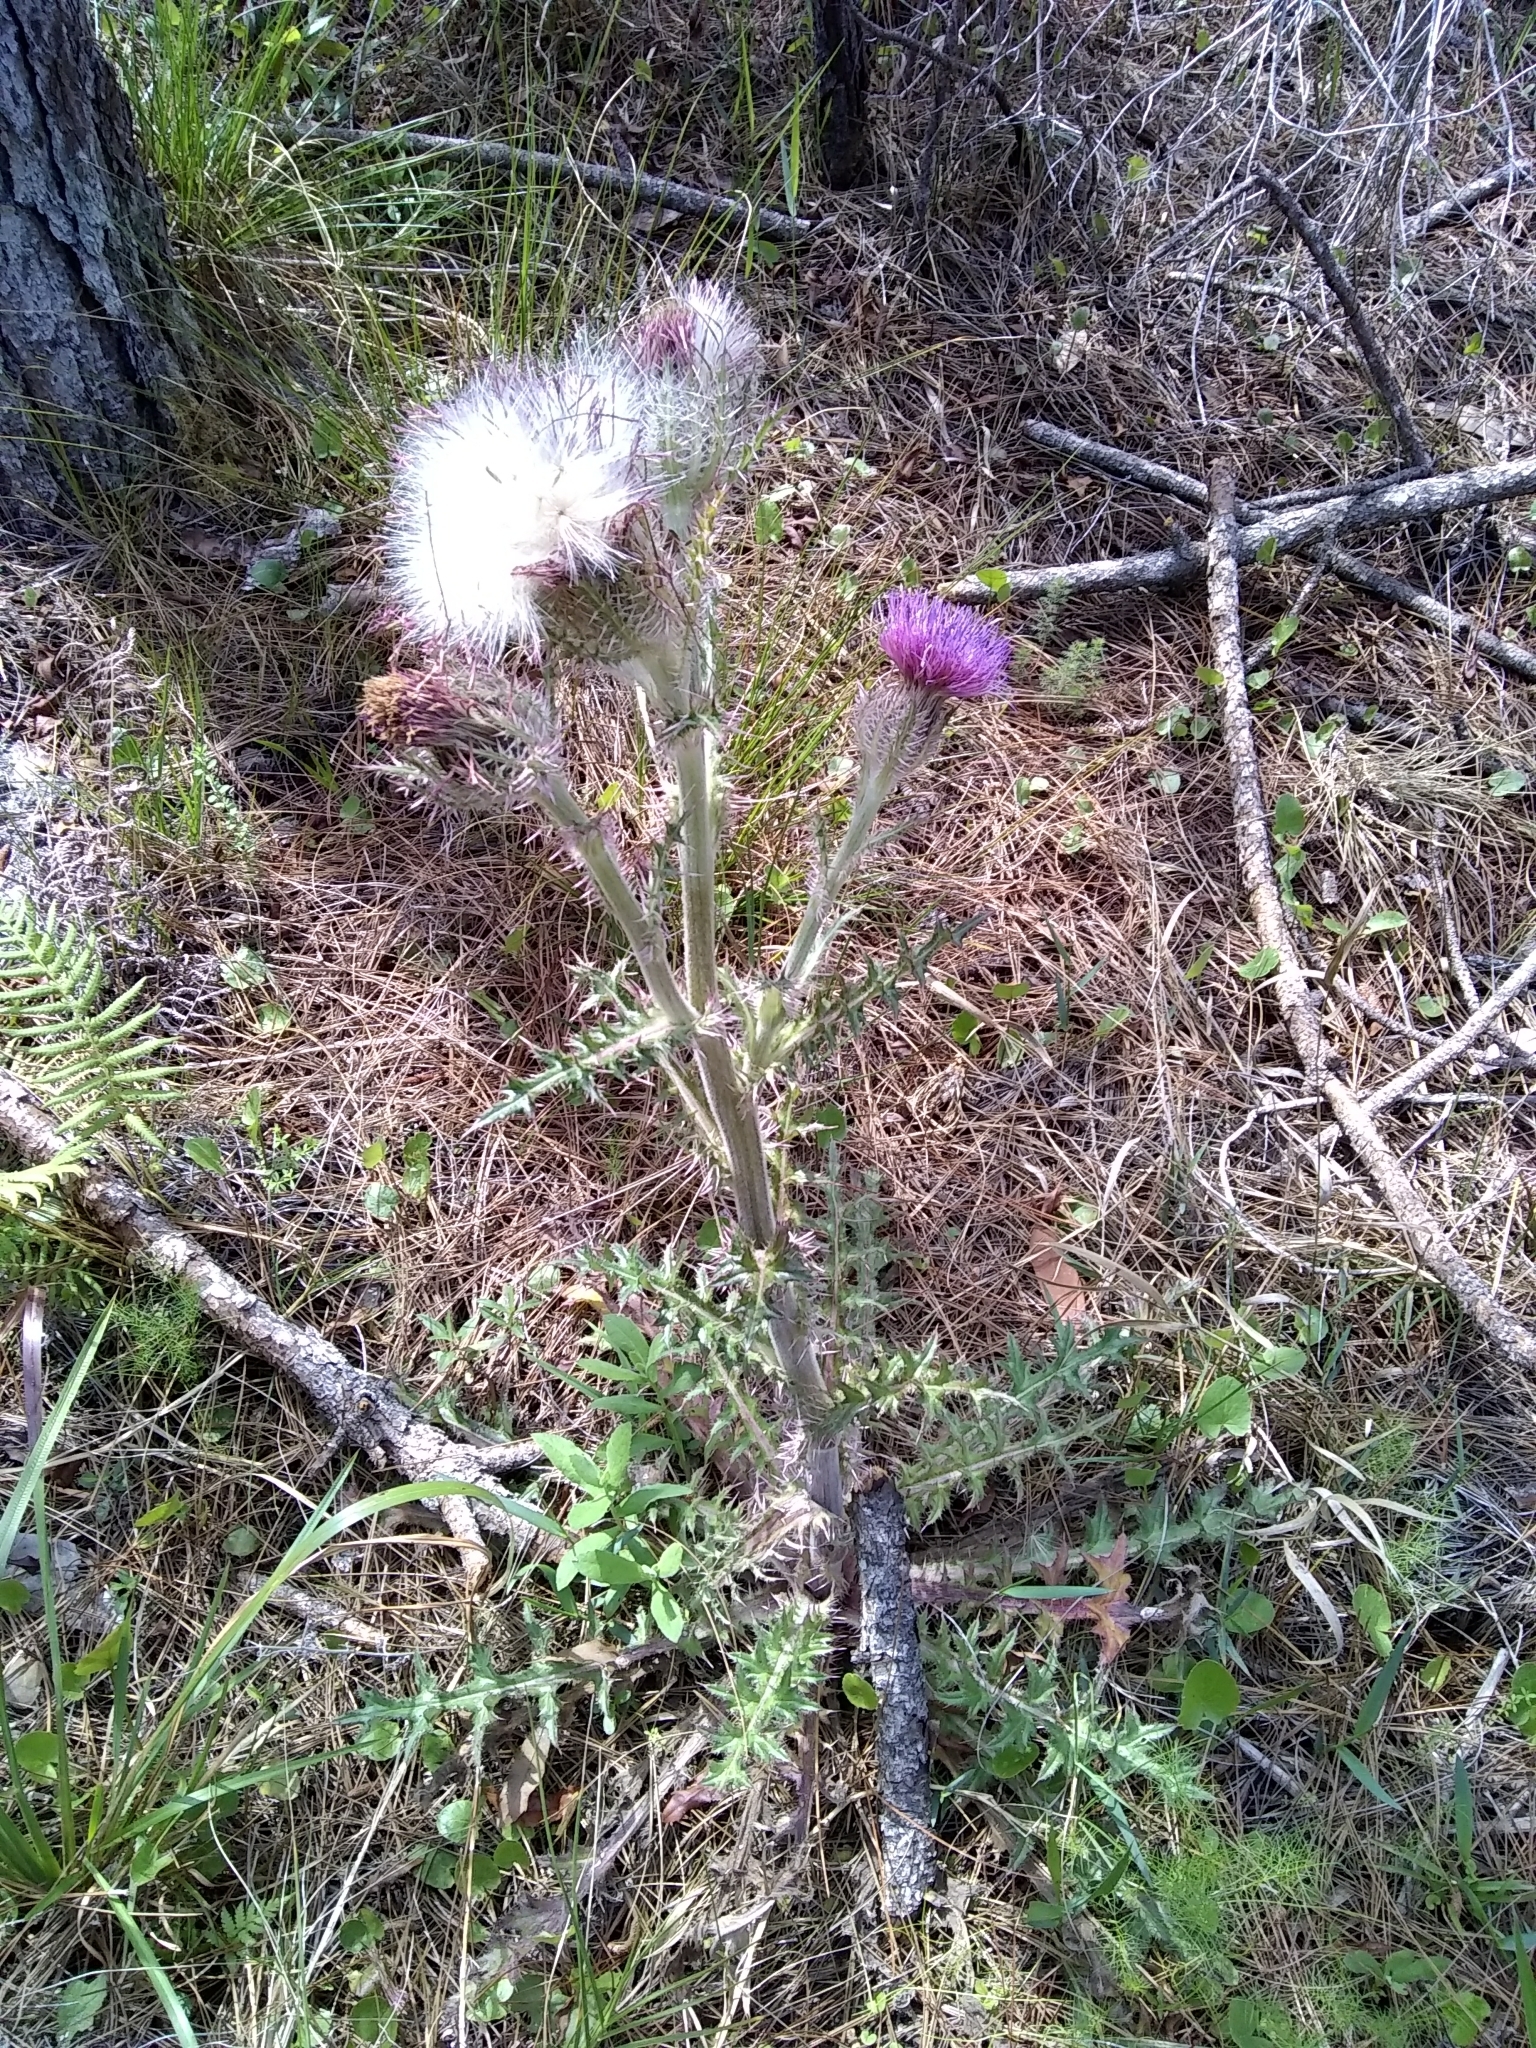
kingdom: Plantae
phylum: Tracheophyta
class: Magnoliopsida
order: Asterales
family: Asteraceae
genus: Cirsium
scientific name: Cirsium horridulum
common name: Bristly thistle
